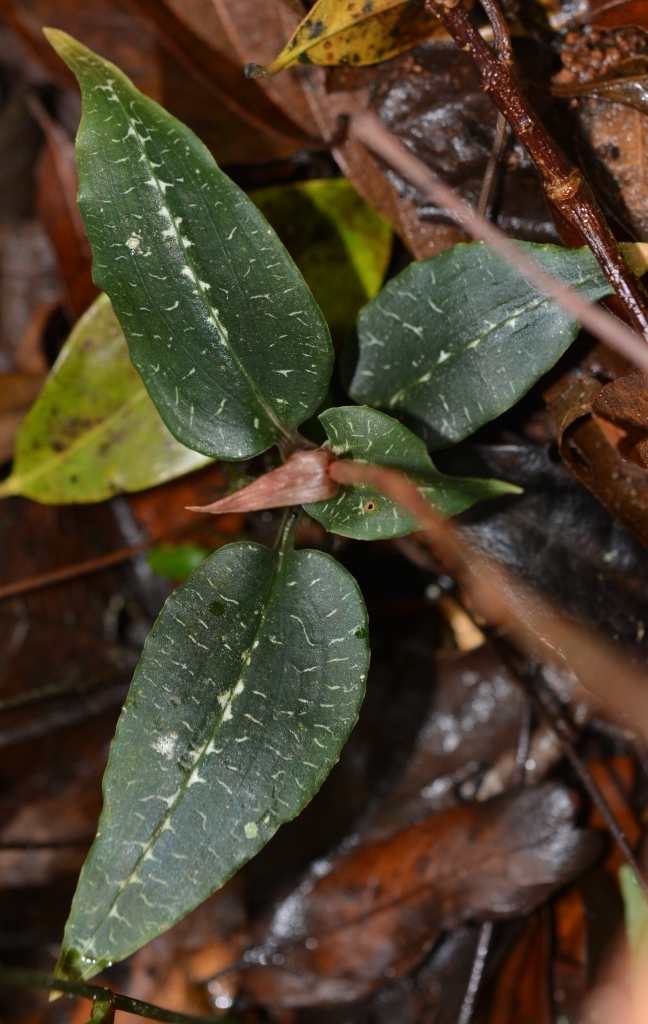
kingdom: Plantae
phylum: Tracheophyta
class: Liliopsida
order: Asparagales
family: Orchidaceae
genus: Goodyera
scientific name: Goodyera striata
